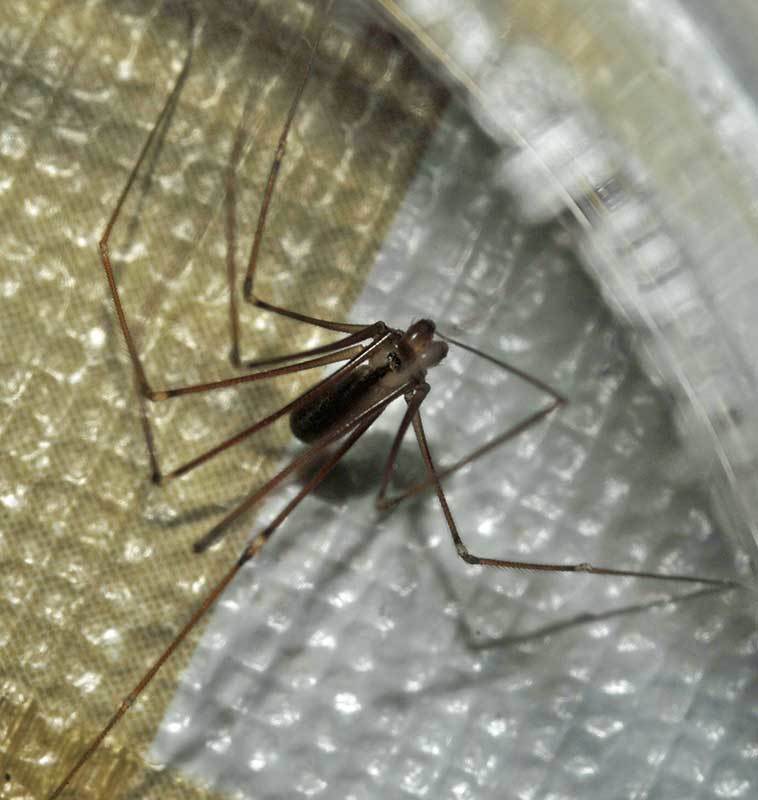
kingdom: Animalia
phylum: Arthropoda
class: Arachnida
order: Araneae
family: Pholcidae
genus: Pholcus
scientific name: Pholcus manueli
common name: Cellar spider
